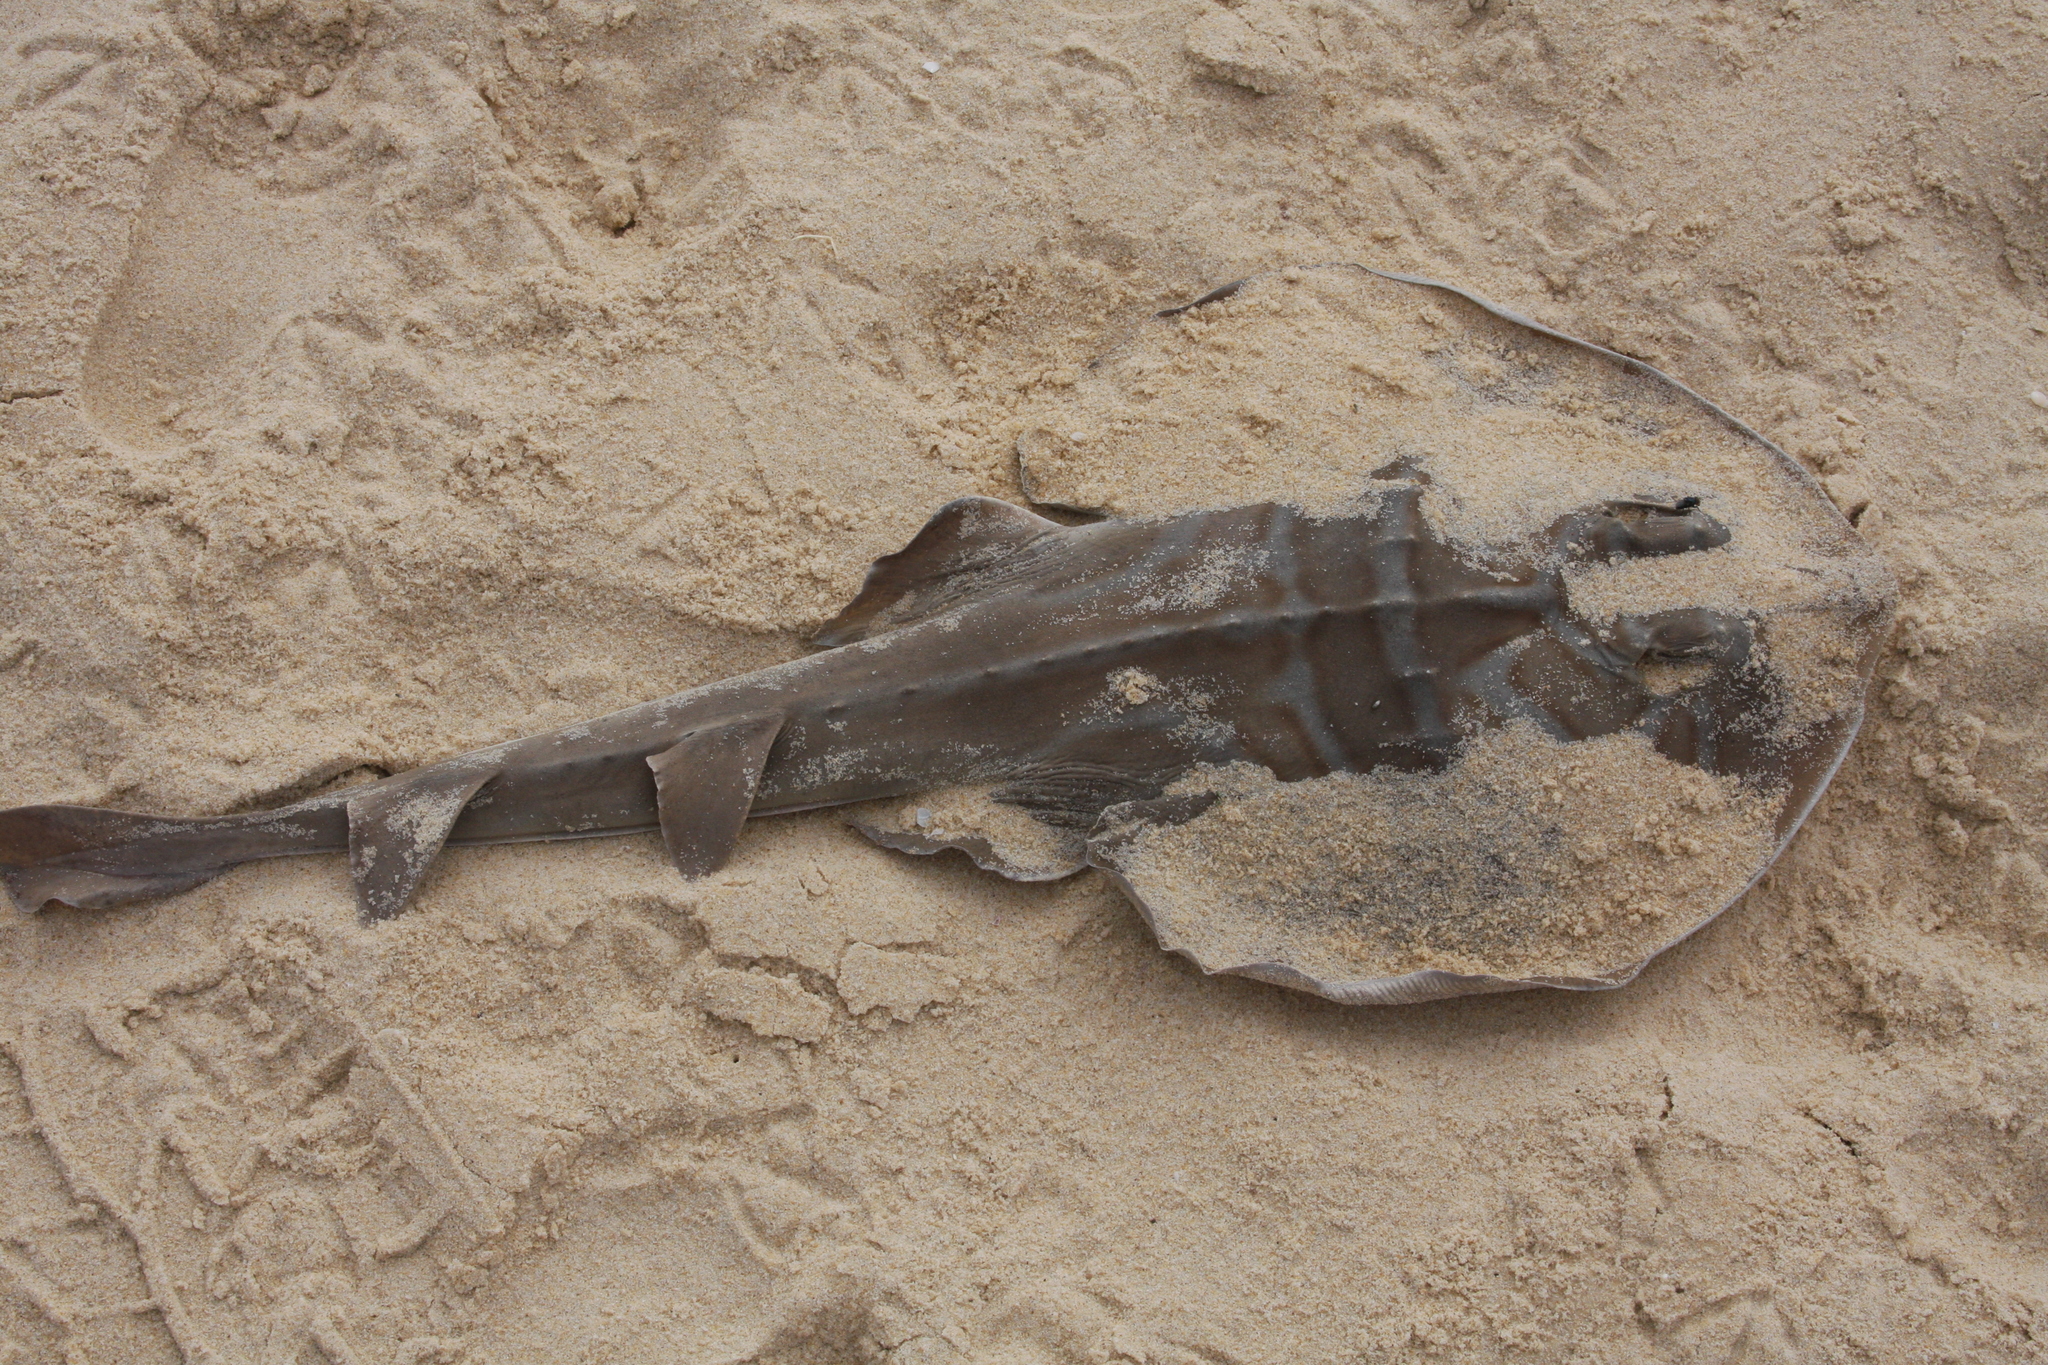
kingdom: Animalia
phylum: Chordata
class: Elasmobranchii
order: Rhinopristiformes
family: Rhinobatidae
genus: Trygonorrhina
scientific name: Trygonorrhina fasciata
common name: Southern fiddler
